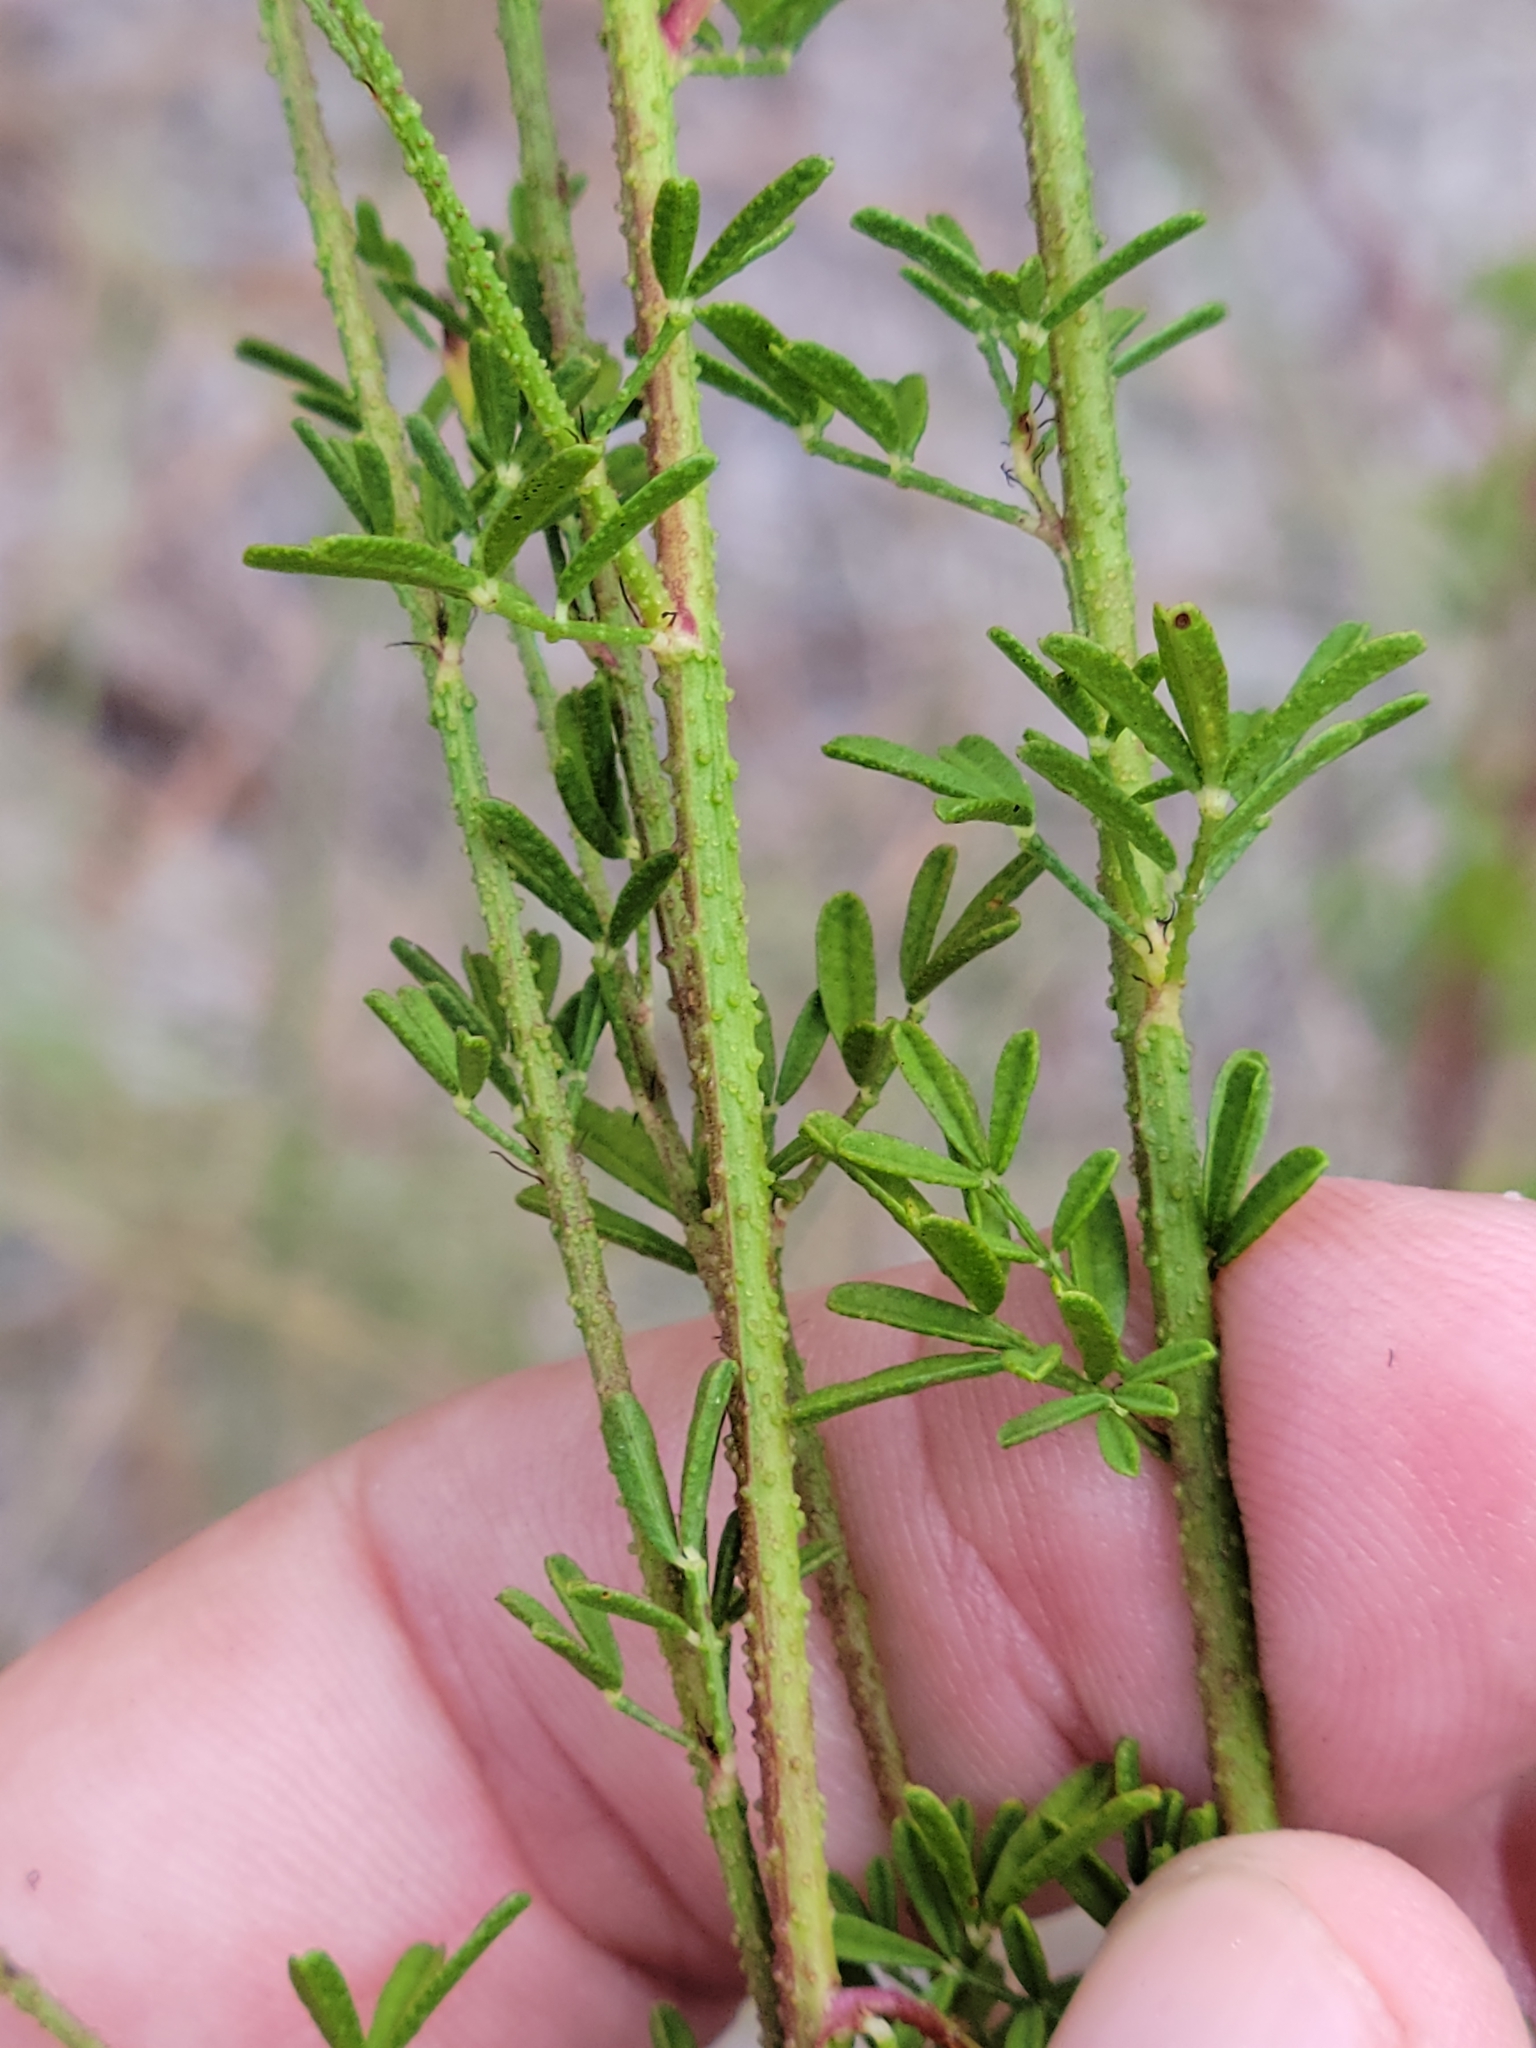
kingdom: Plantae
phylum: Tracheophyta
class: Magnoliopsida
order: Fabales
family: Fabaceae
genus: Dalea
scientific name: Dalea pinnata
